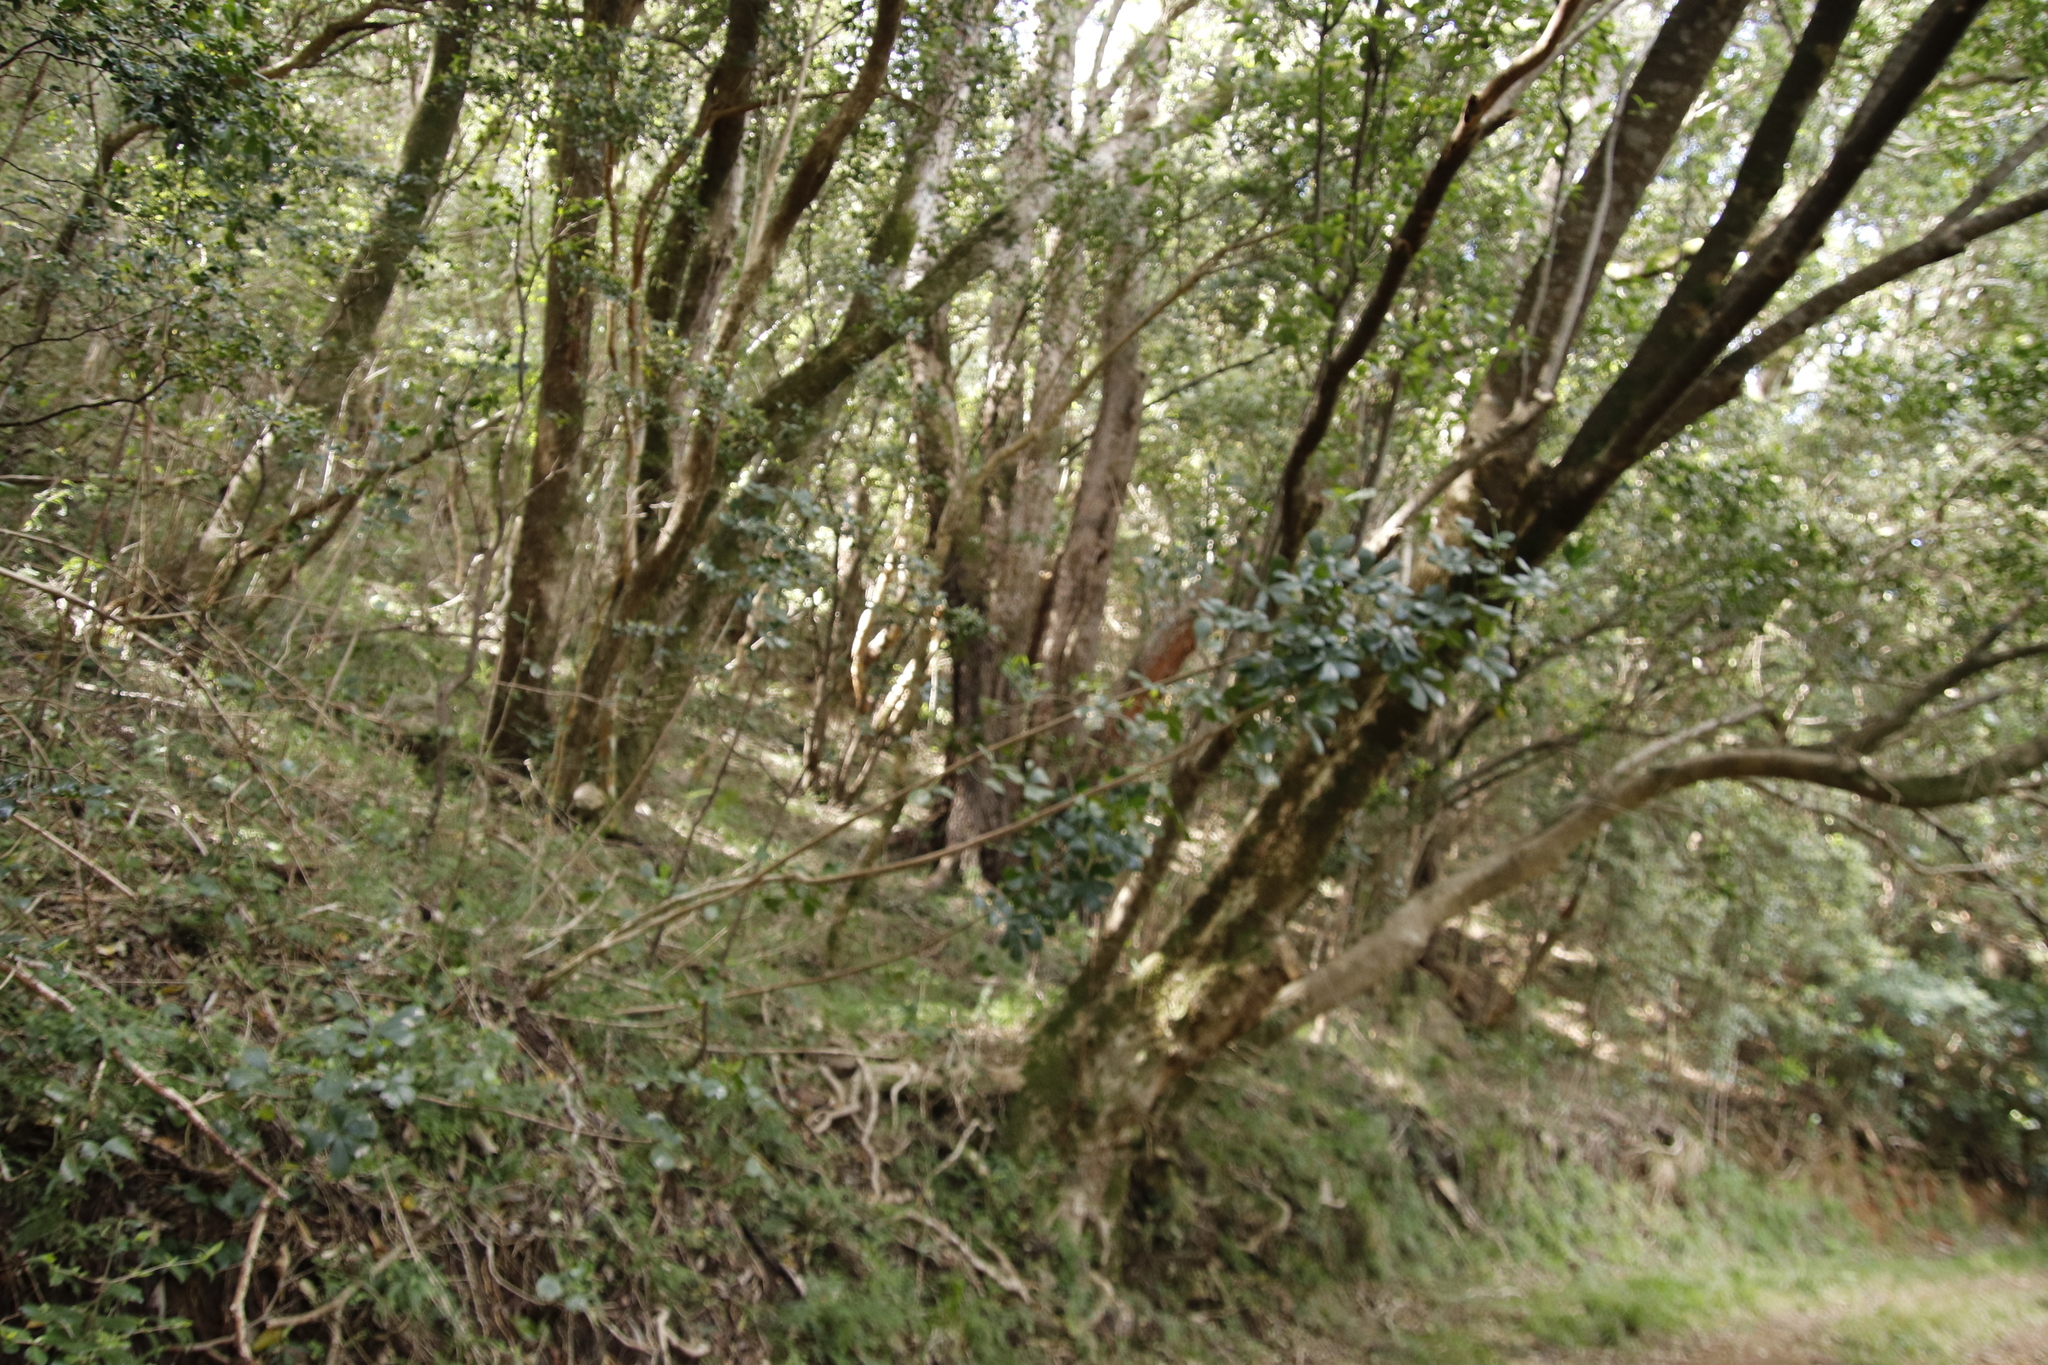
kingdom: Plantae
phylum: Tracheophyta
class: Magnoliopsida
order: Apiales
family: Araliaceae
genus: Cussonia
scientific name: Cussonia thyrsiflora
